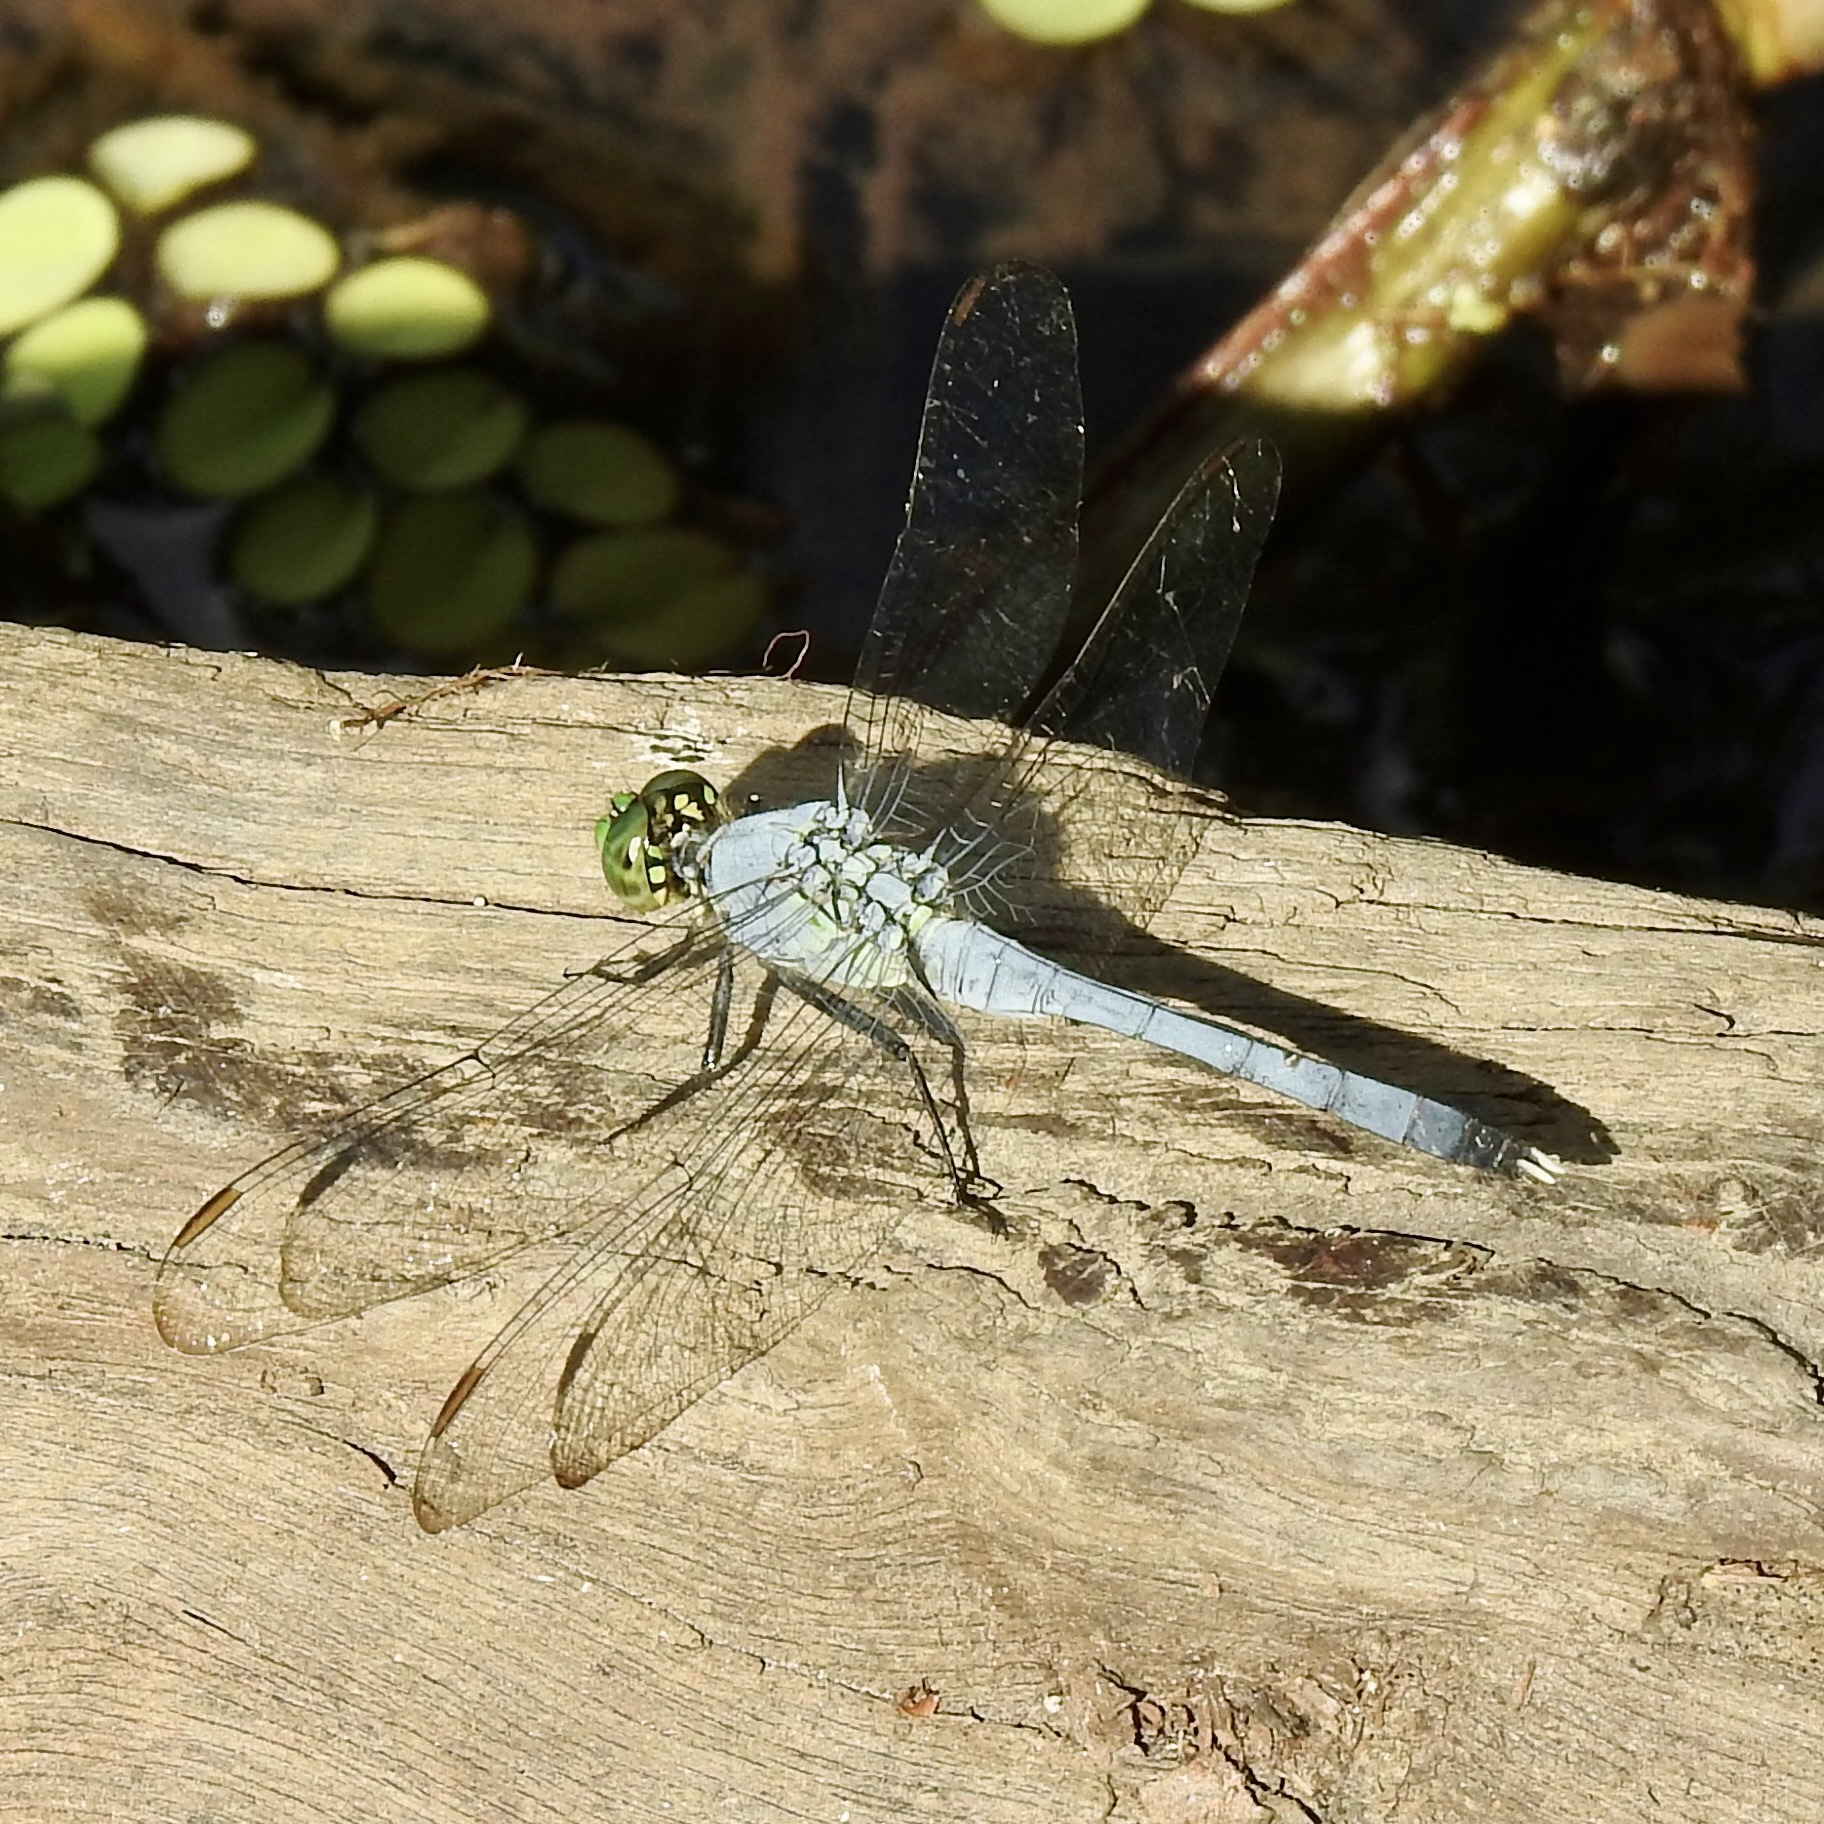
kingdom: Animalia
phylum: Arthropoda
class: Insecta
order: Odonata
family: Libellulidae
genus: Erythemis
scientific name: Erythemis simplicicollis
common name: Eastern pondhawk
